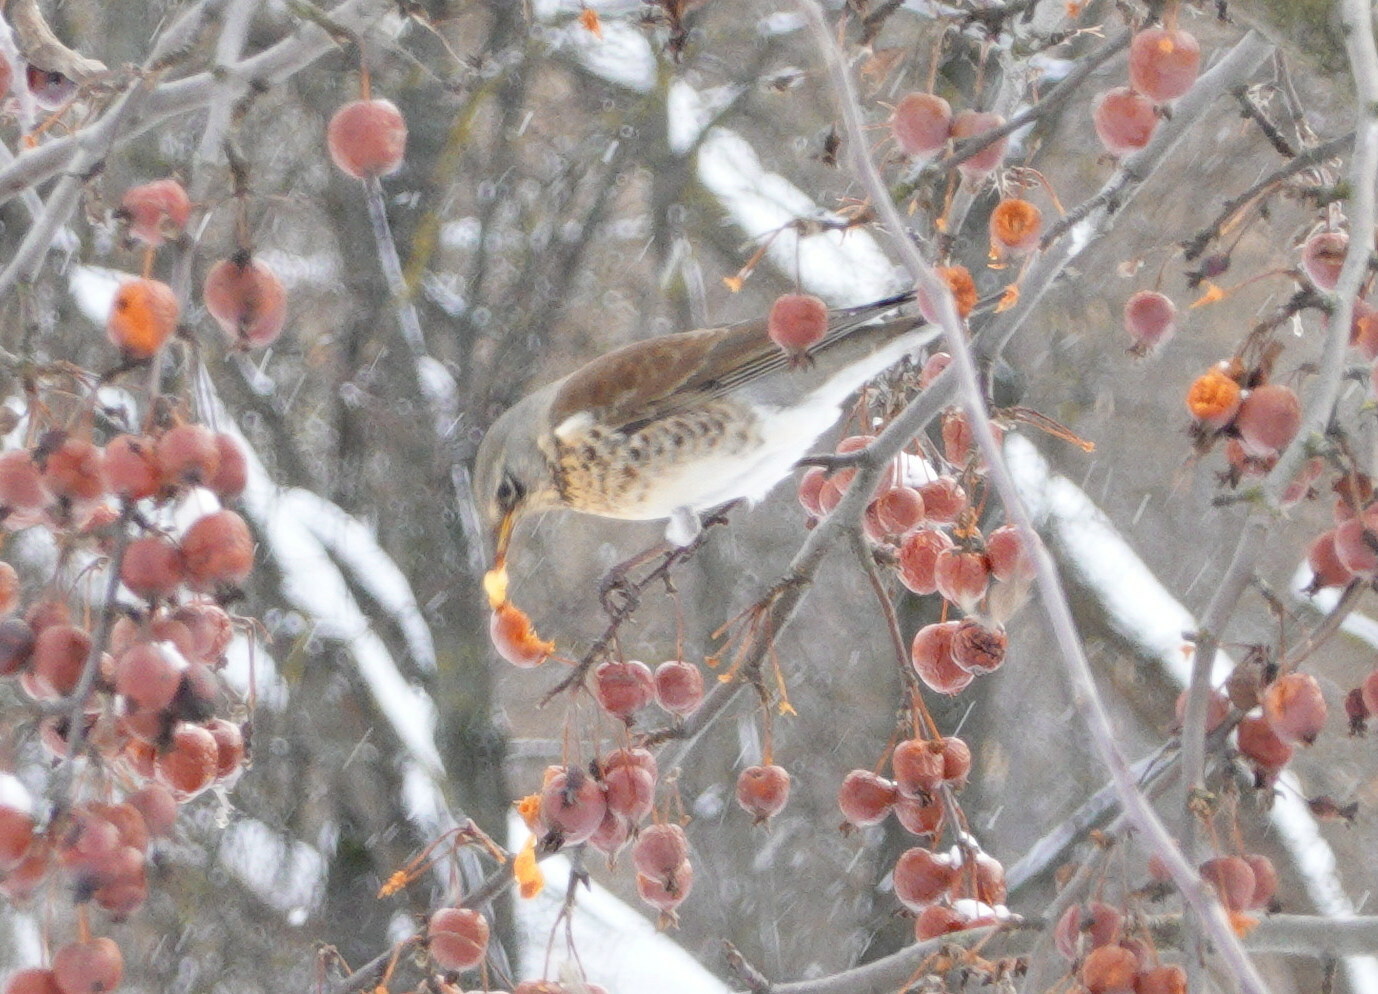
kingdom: Animalia
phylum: Chordata
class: Aves
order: Passeriformes
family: Turdidae
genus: Turdus
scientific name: Turdus pilaris
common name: Fieldfare
